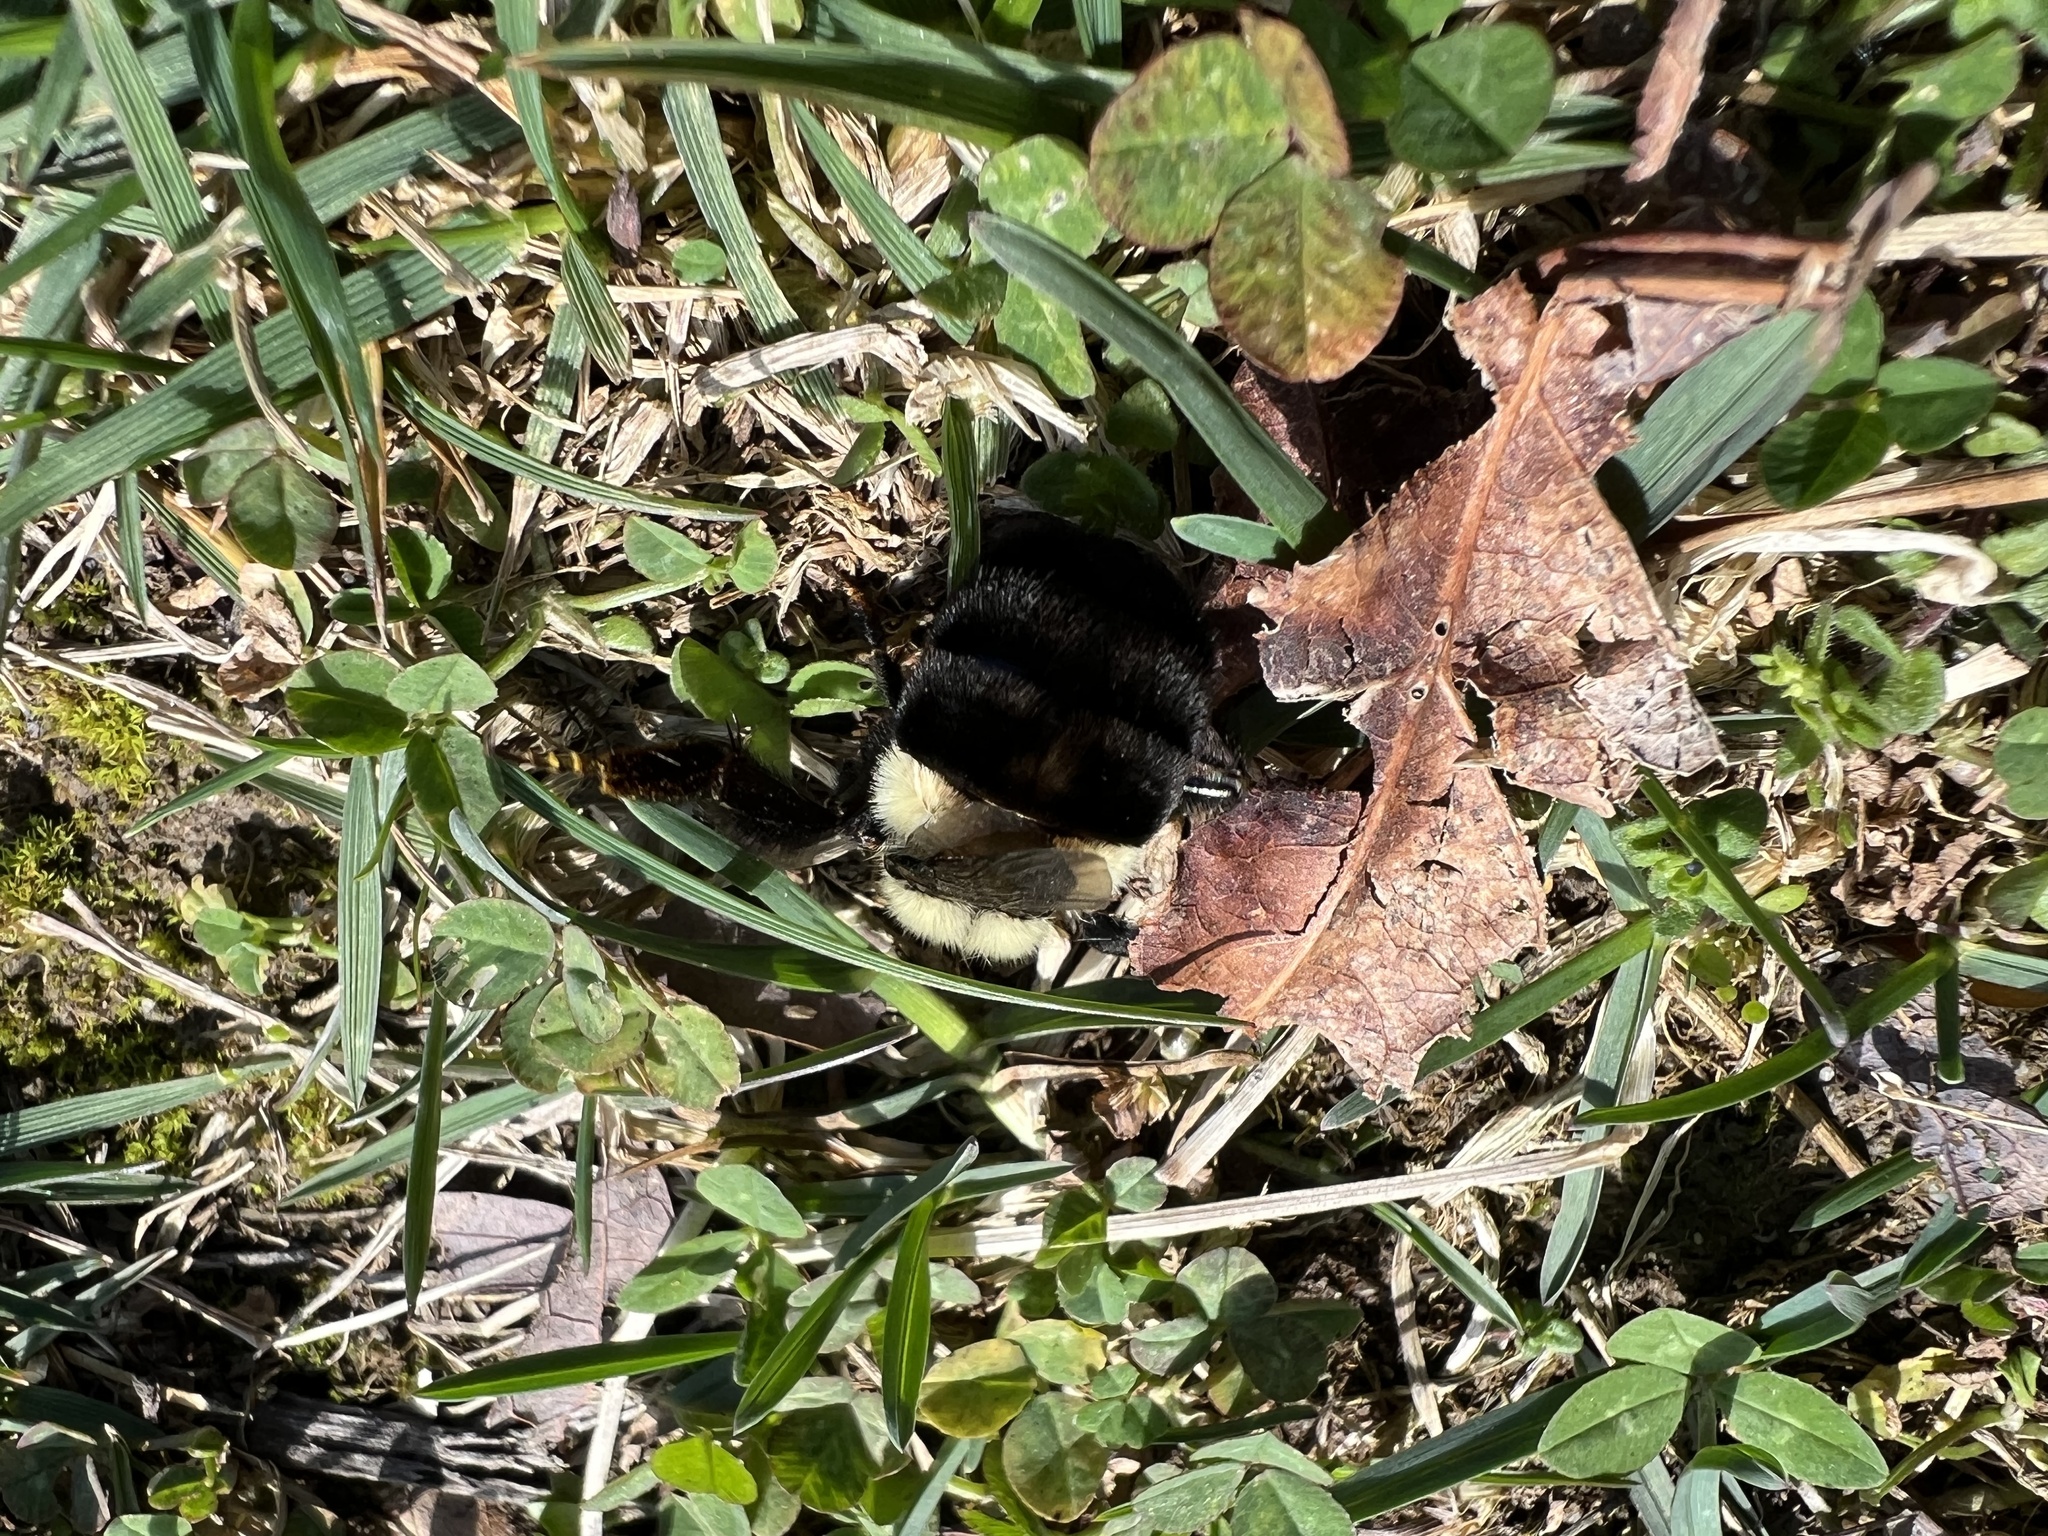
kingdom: Animalia
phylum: Arthropoda
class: Insecta
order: Hymenoptera
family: Apidae
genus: Bombus
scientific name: Bombus impatiens
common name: Common eastern bumble bee
